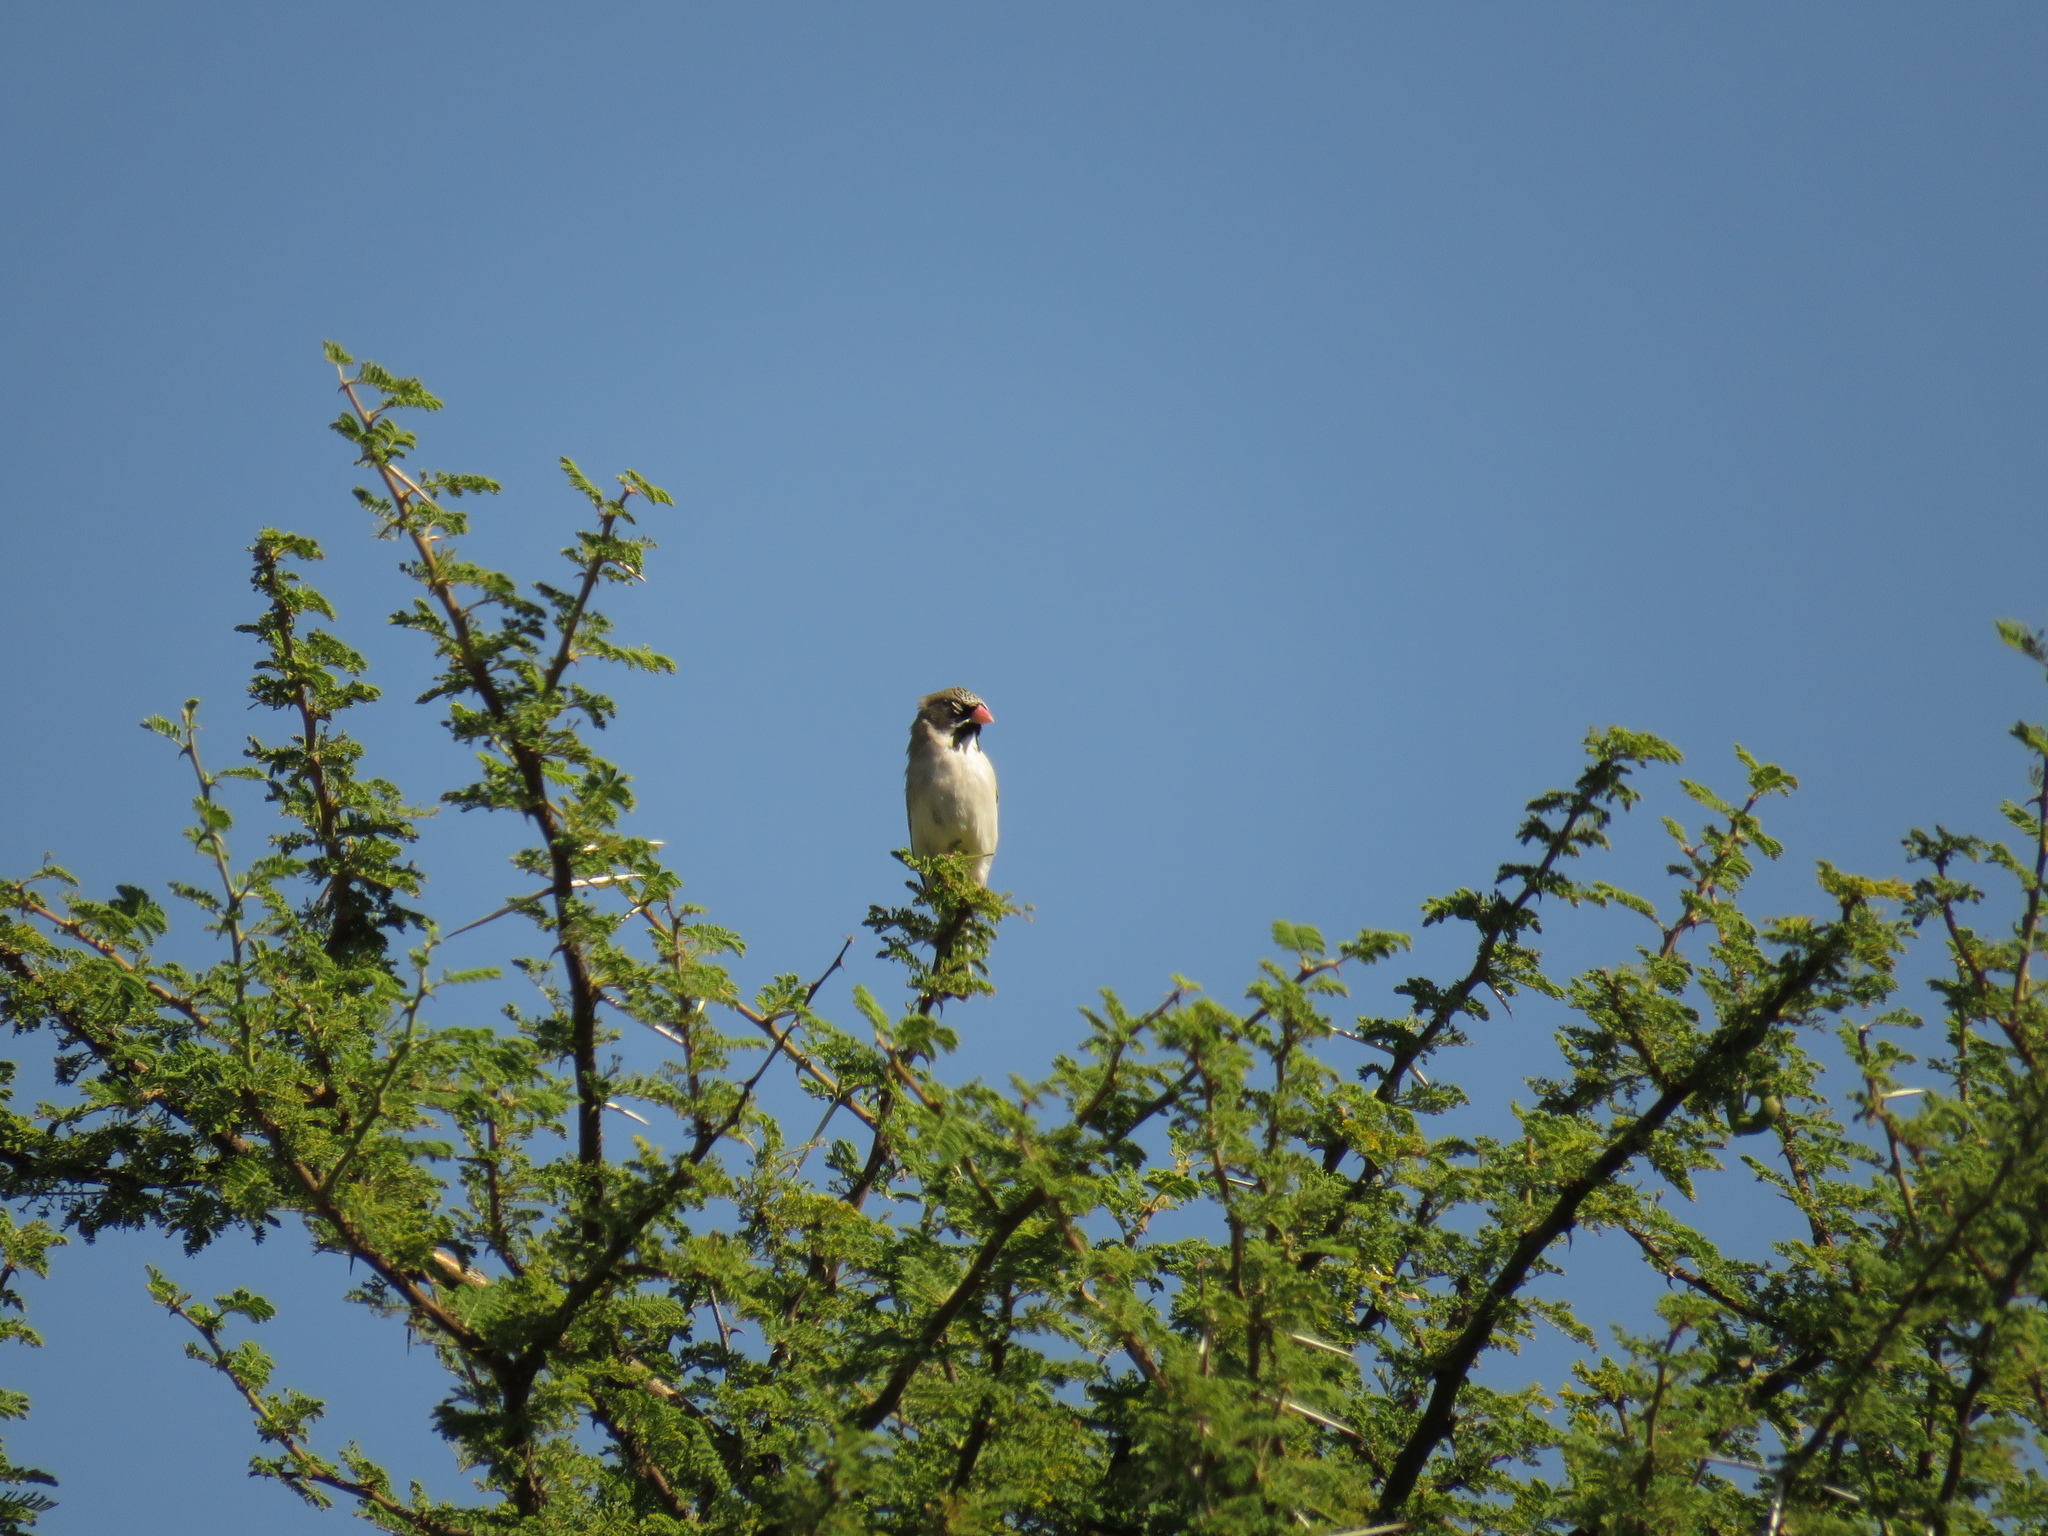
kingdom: Animalia
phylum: Chordata
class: Aves
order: Passeriformes
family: Ploceidae
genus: Sporopipes
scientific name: Sporopipes squamifrons
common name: Scaly-feathered weaver
